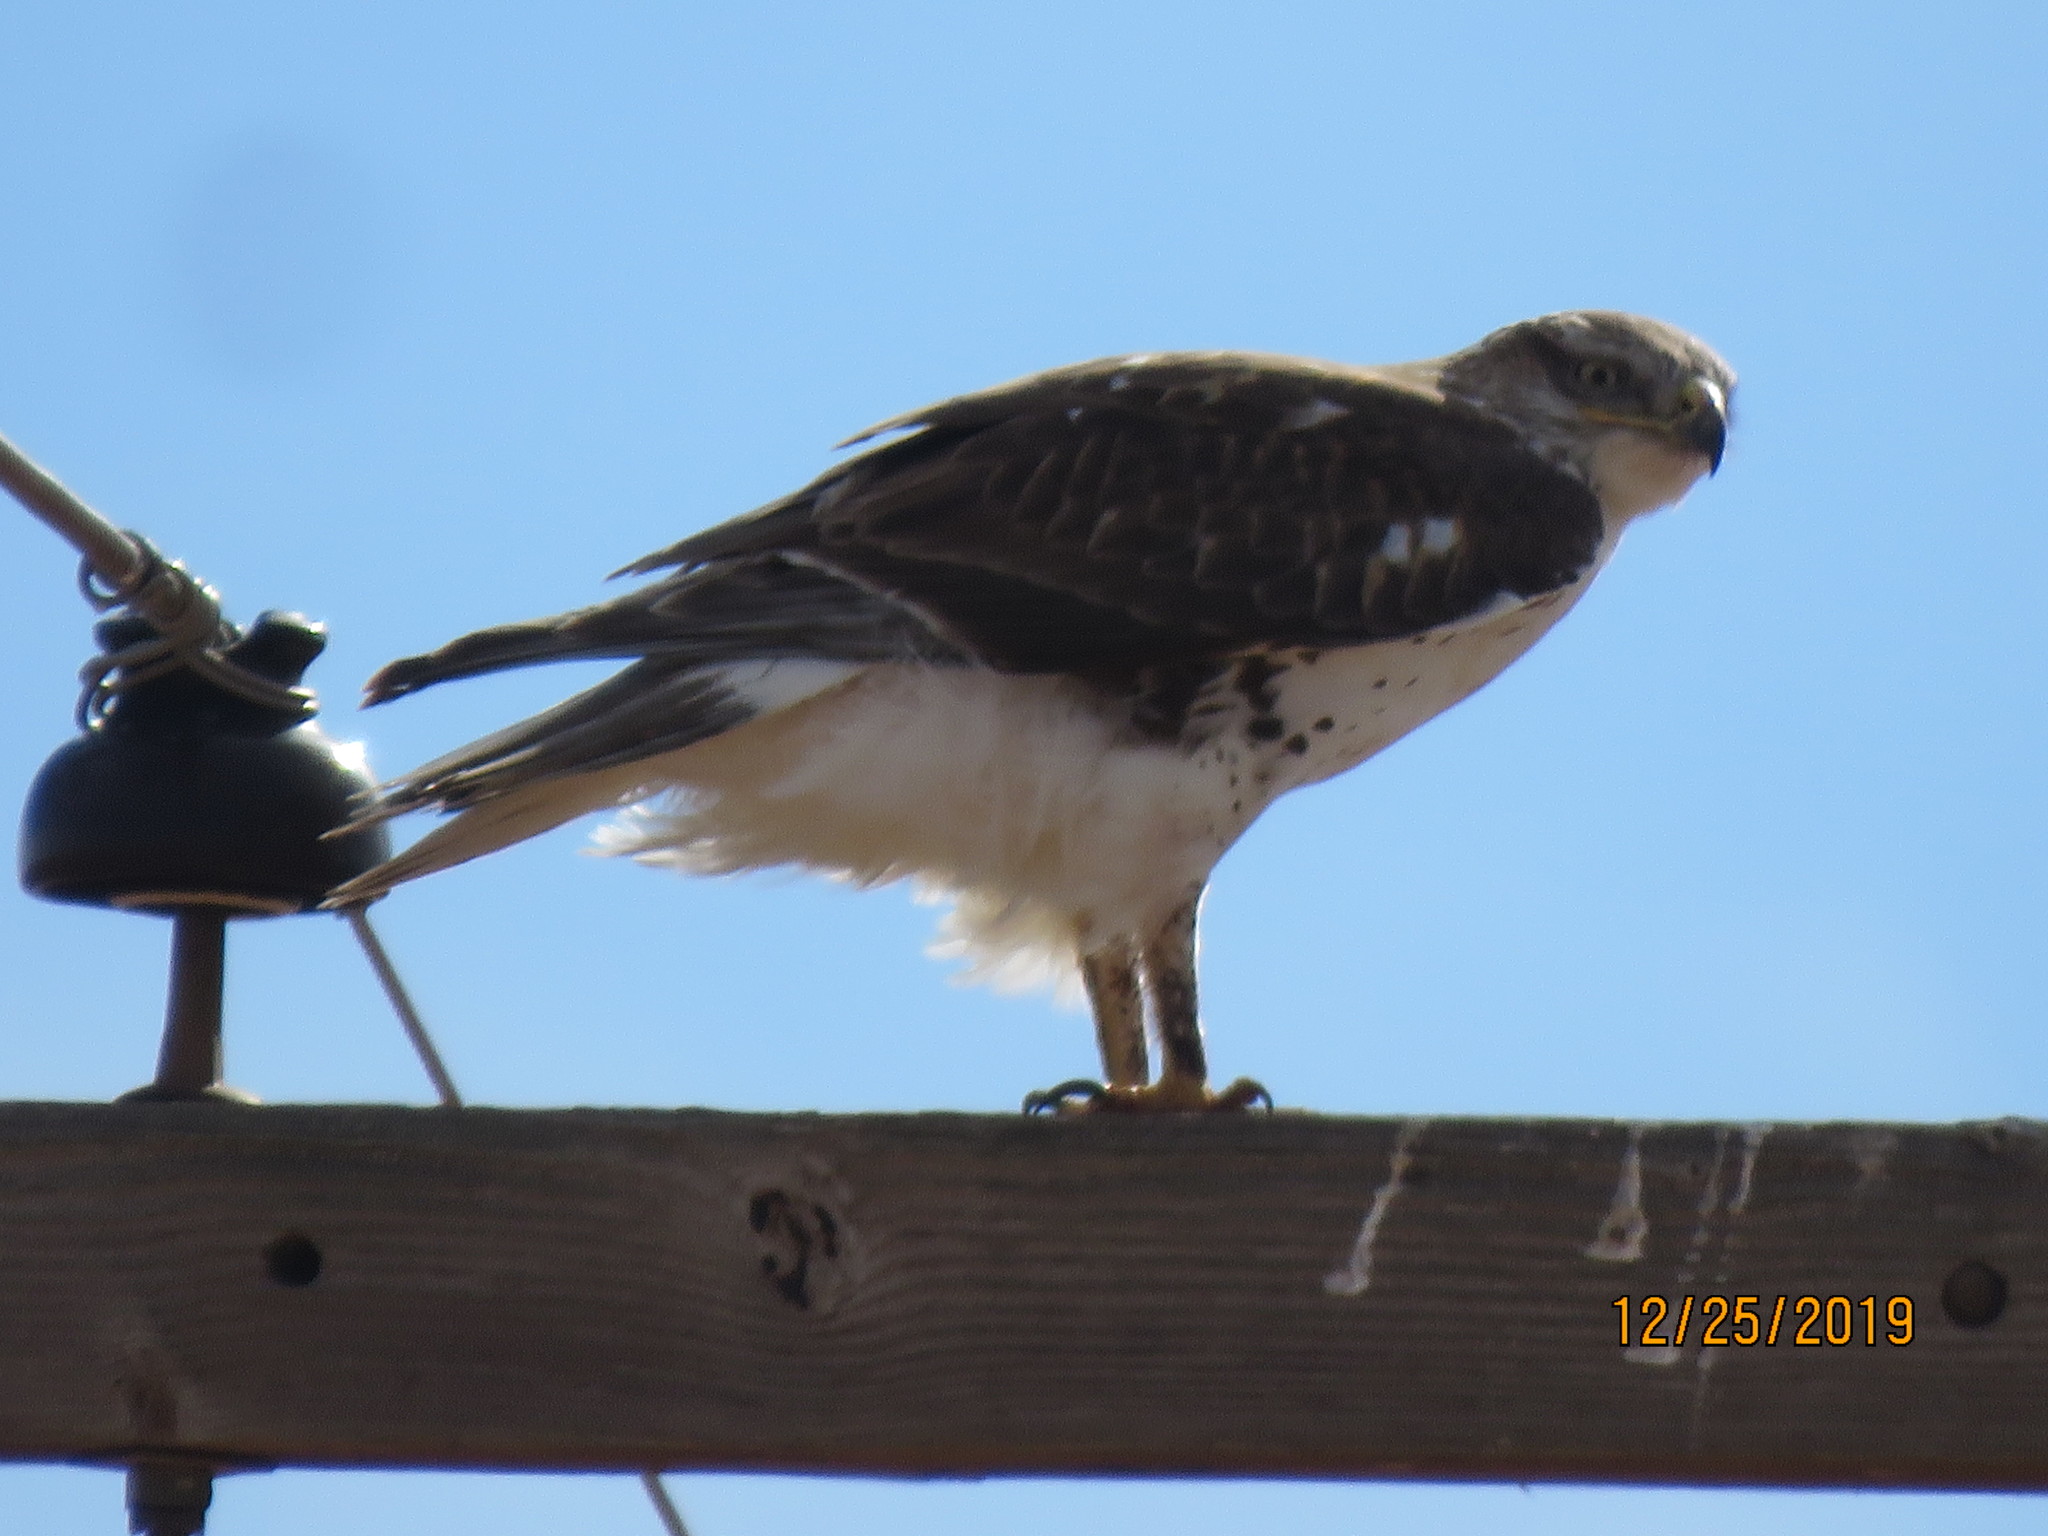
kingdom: Animalia
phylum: Chordata
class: Aves
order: Accipitriformes
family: Accipitridae
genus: Buteo
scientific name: Buteo regalis
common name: Ferruginous hawk
